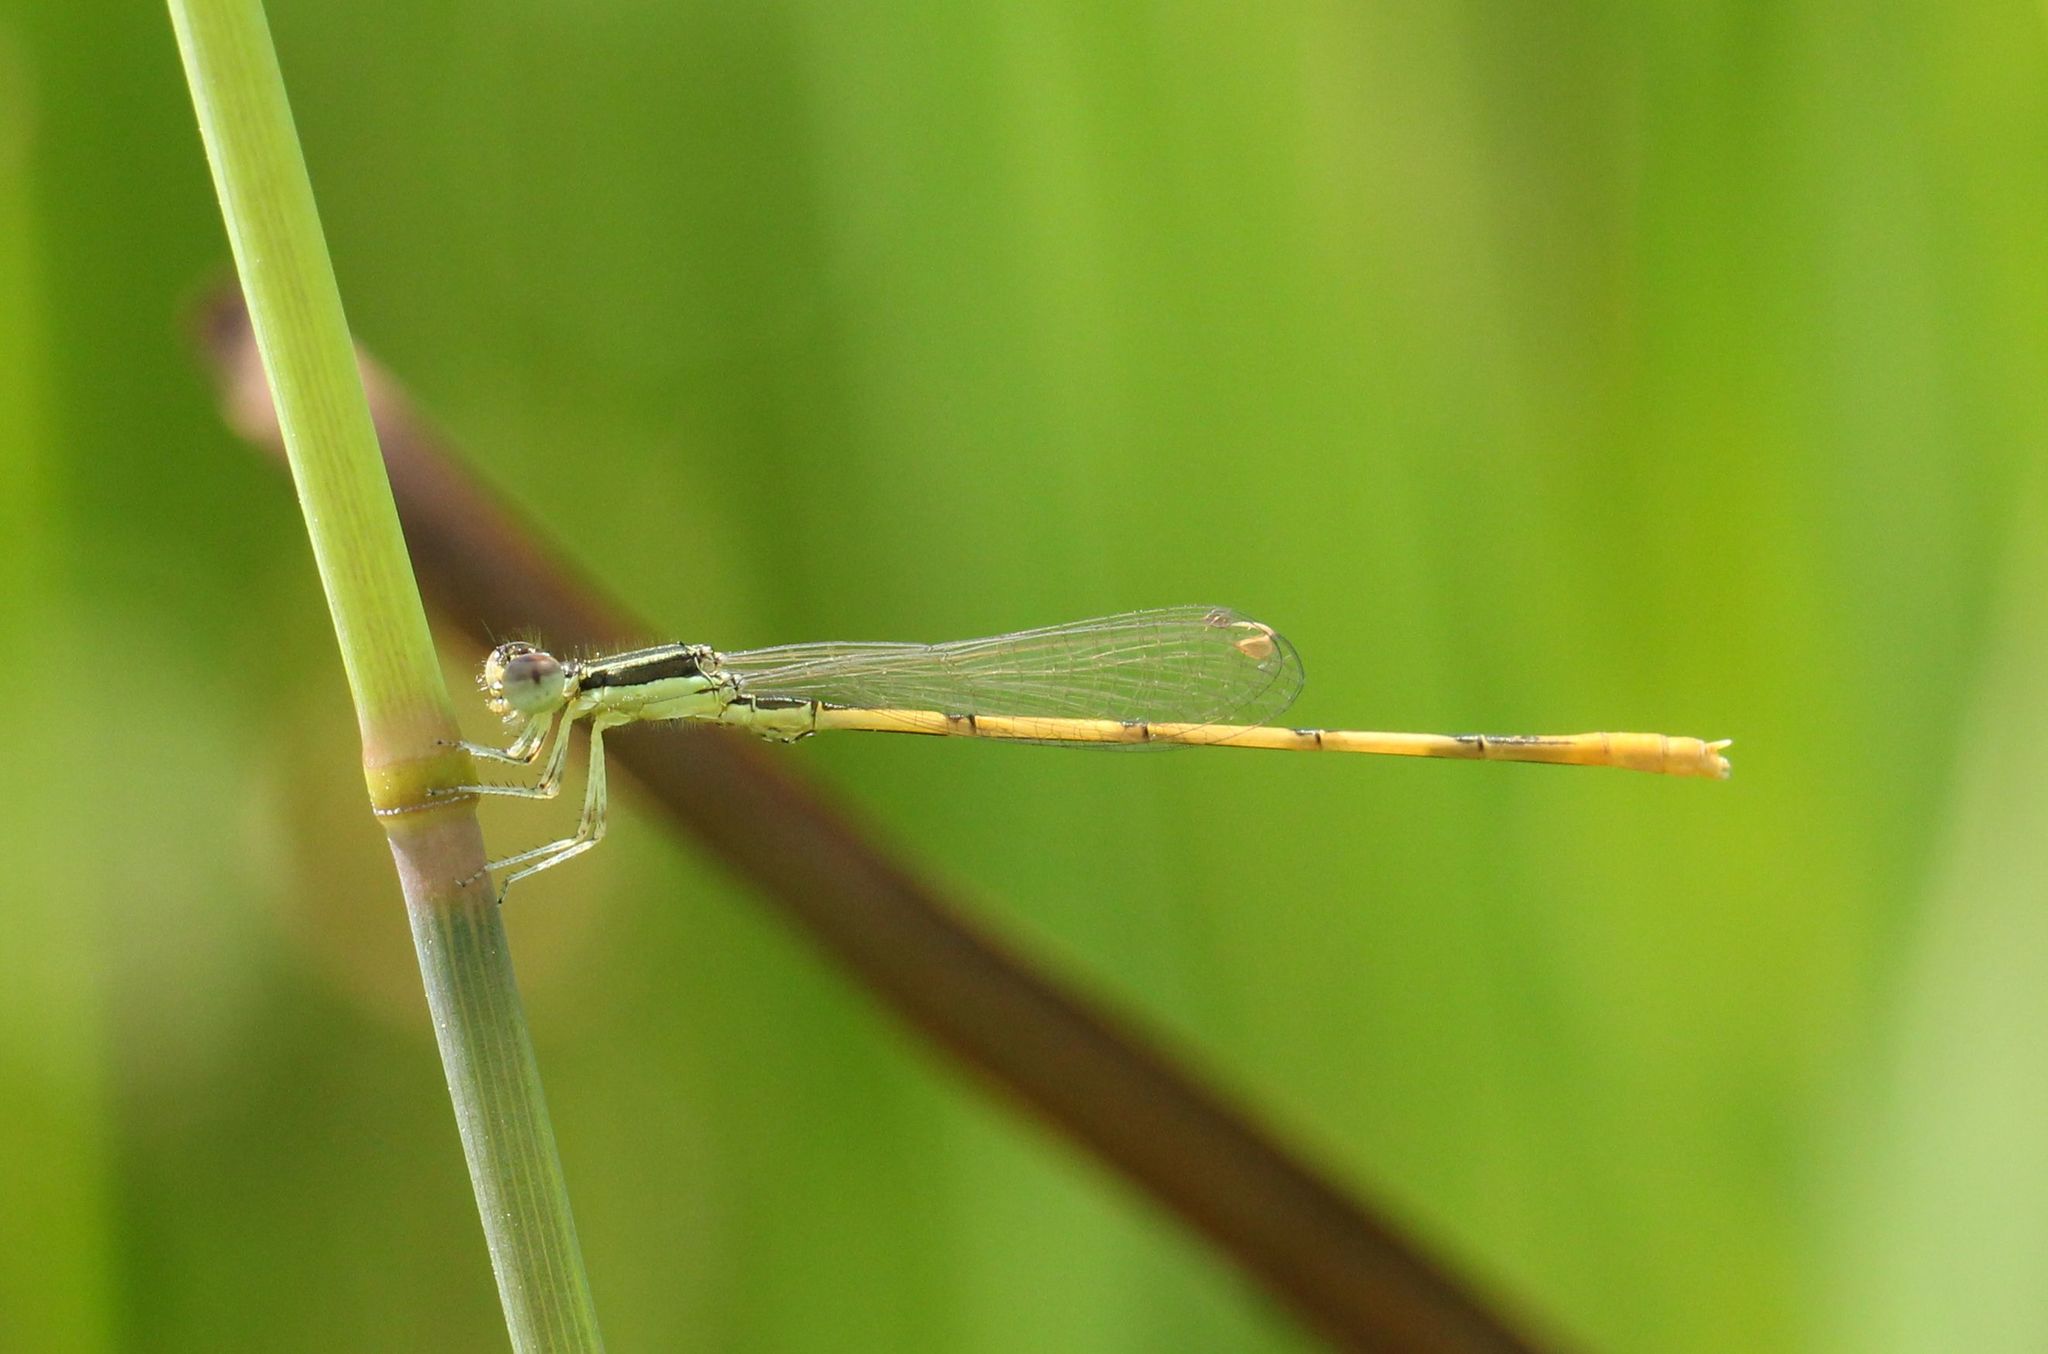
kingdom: Animalia
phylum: Arthropoda
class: Insecta
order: Odonata
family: Coenagrionidae
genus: Ischnura
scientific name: Ischnura hastata
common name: Citrine forktail
